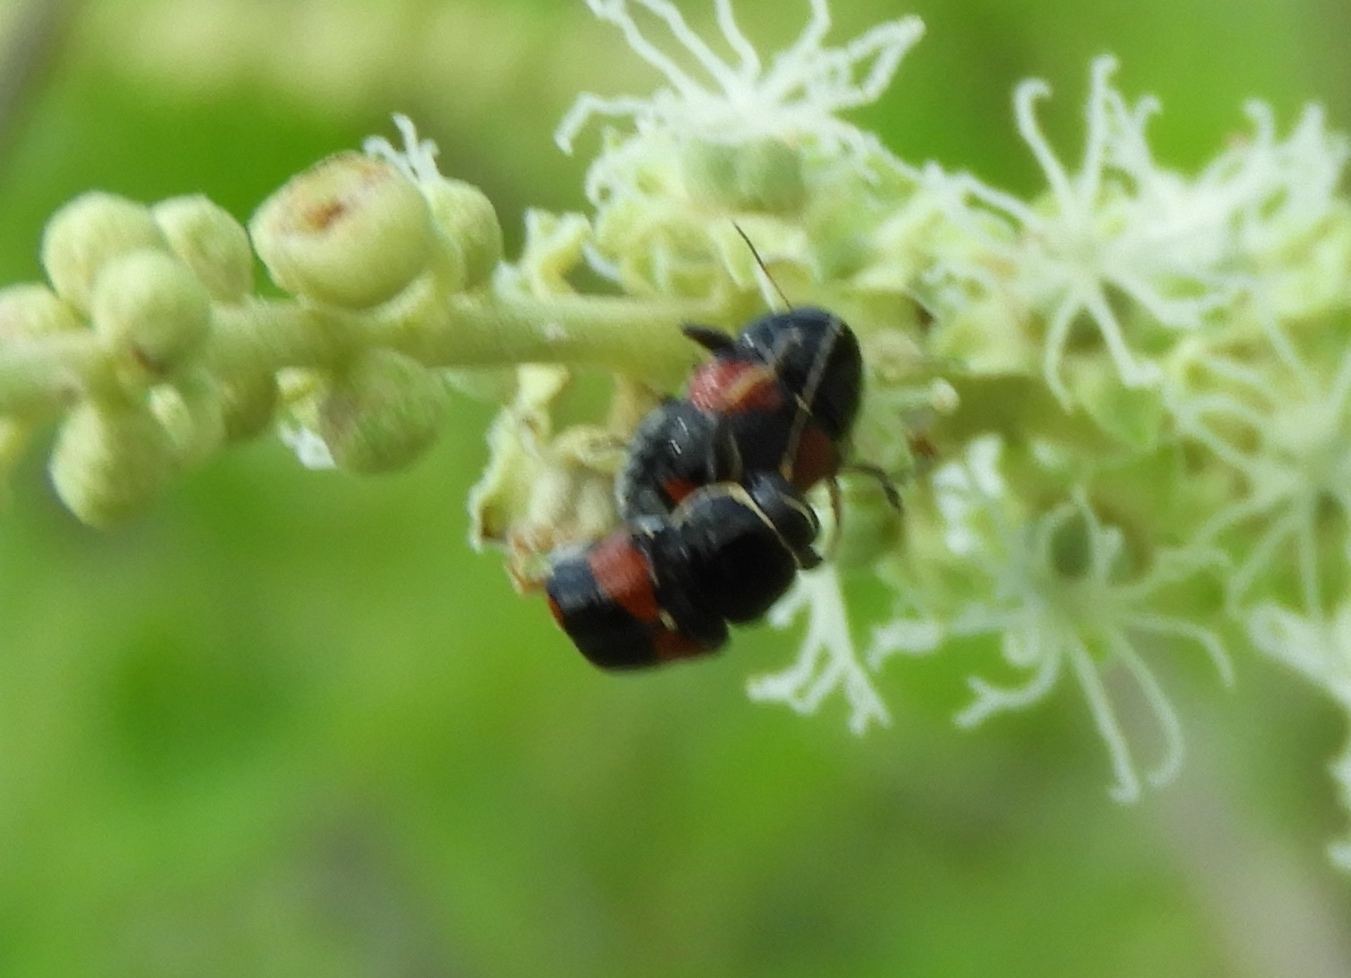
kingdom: Animalia
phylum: Arthropoda
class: Insecta
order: Coleoptera
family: Chrysomelidae
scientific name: Chrysomelidae
